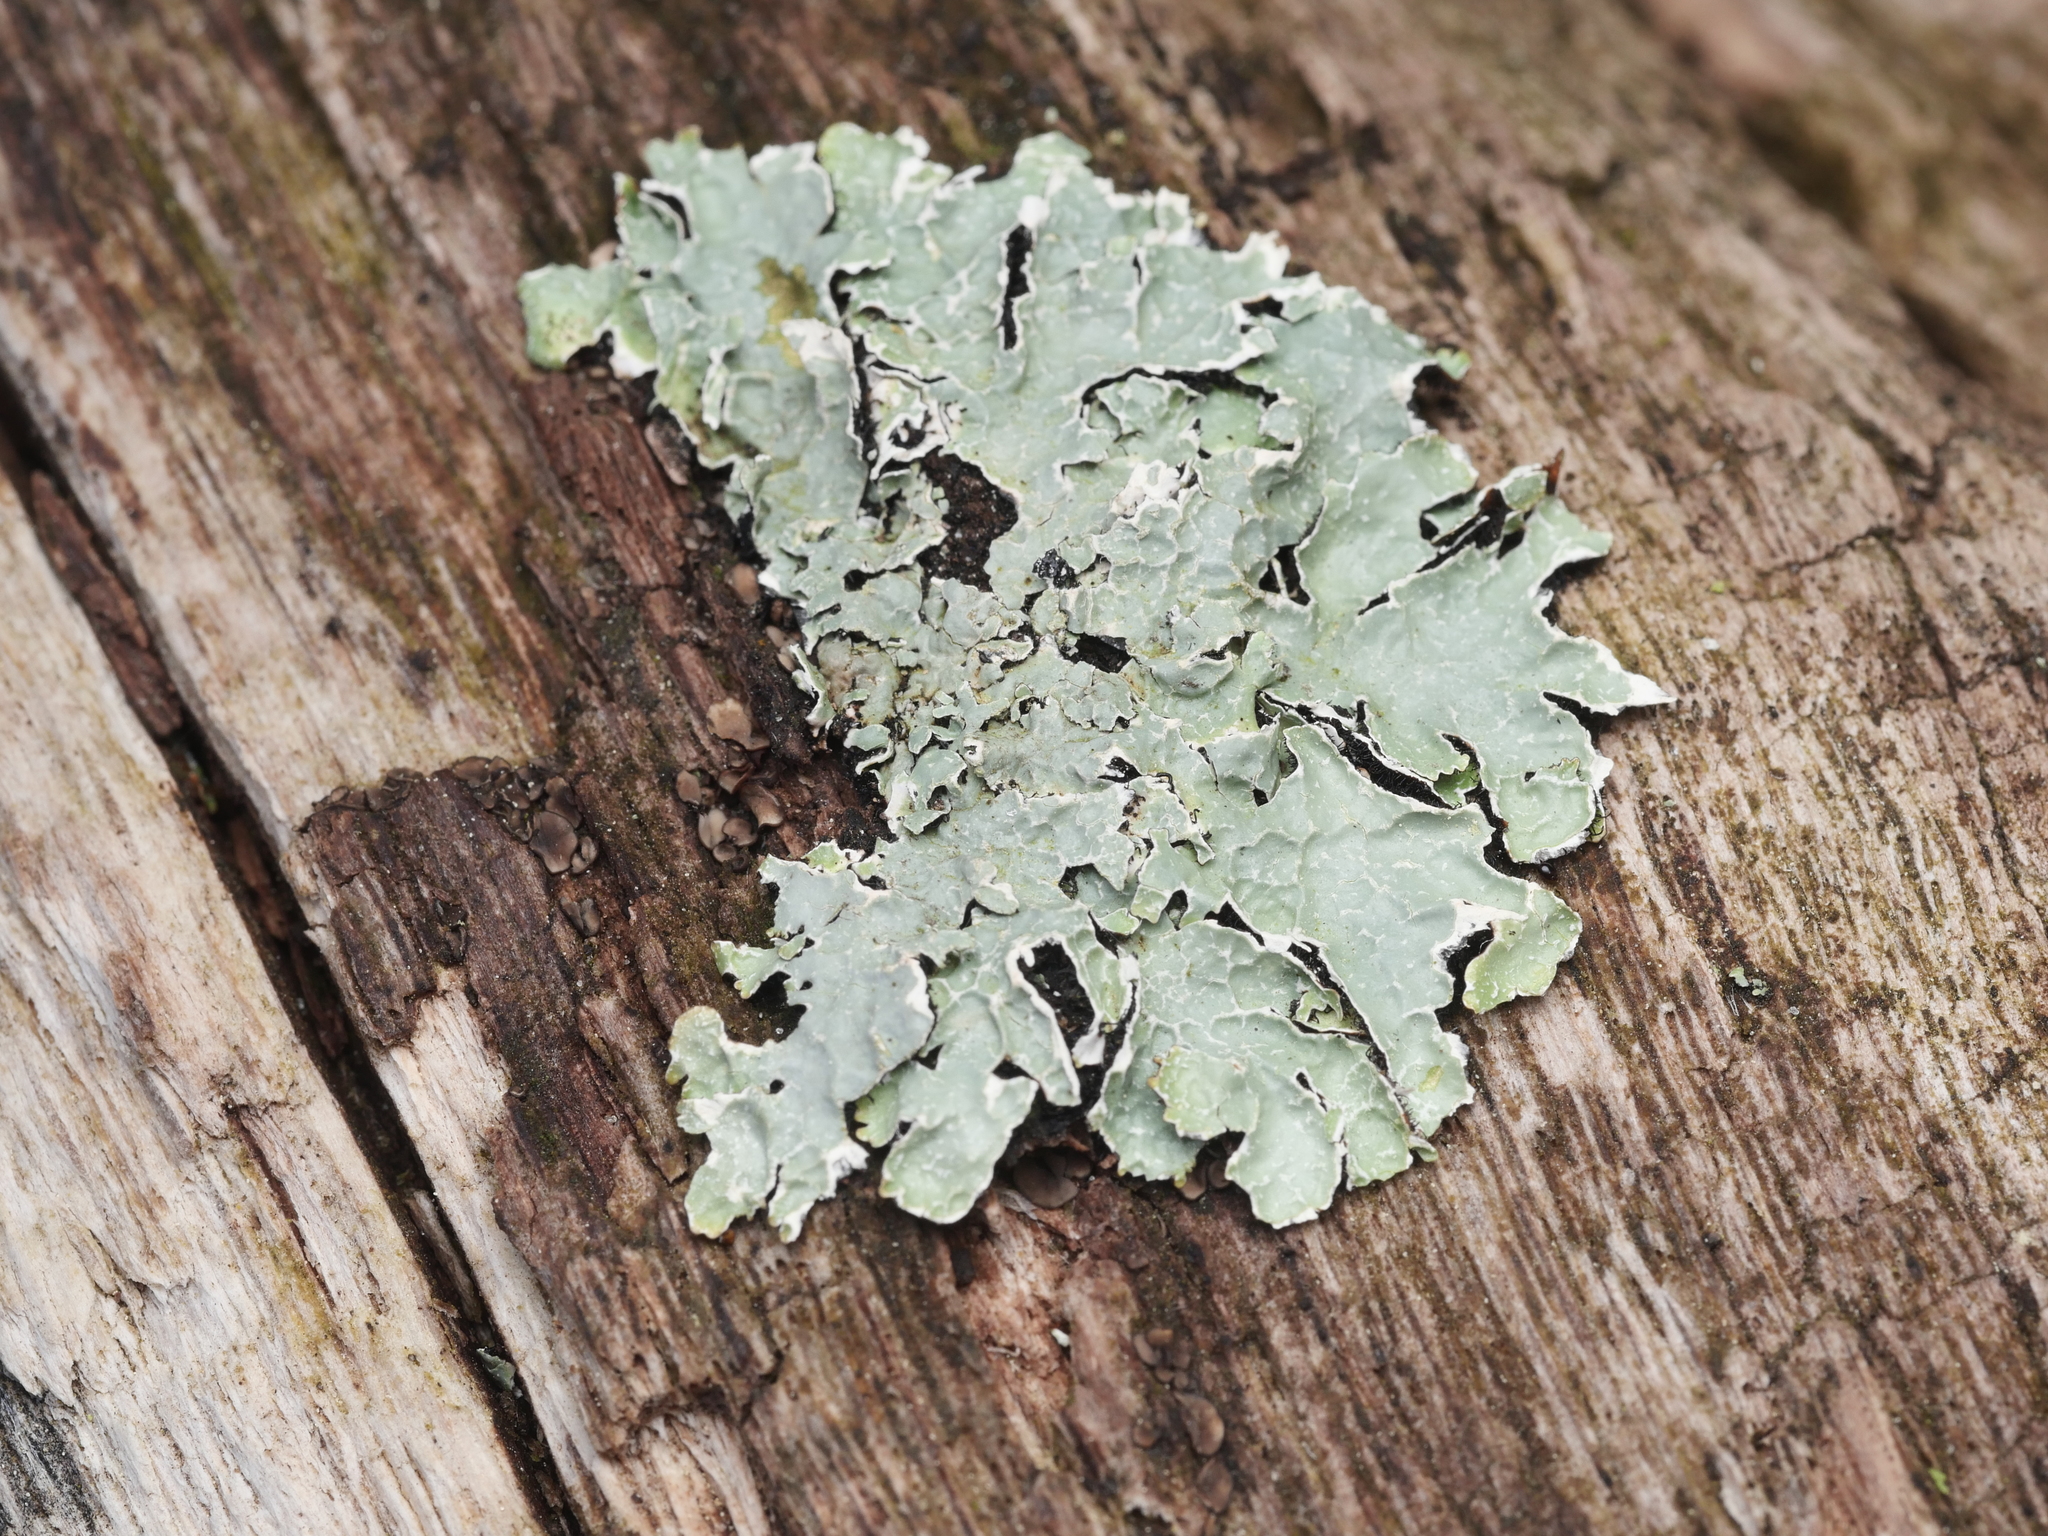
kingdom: Fungi
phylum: Ascomycota
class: Lecanoromycetes
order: Lecanorales
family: Parmeliaceae
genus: Parmelia
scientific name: Parmelia sulcata
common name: Netted shield lichen
